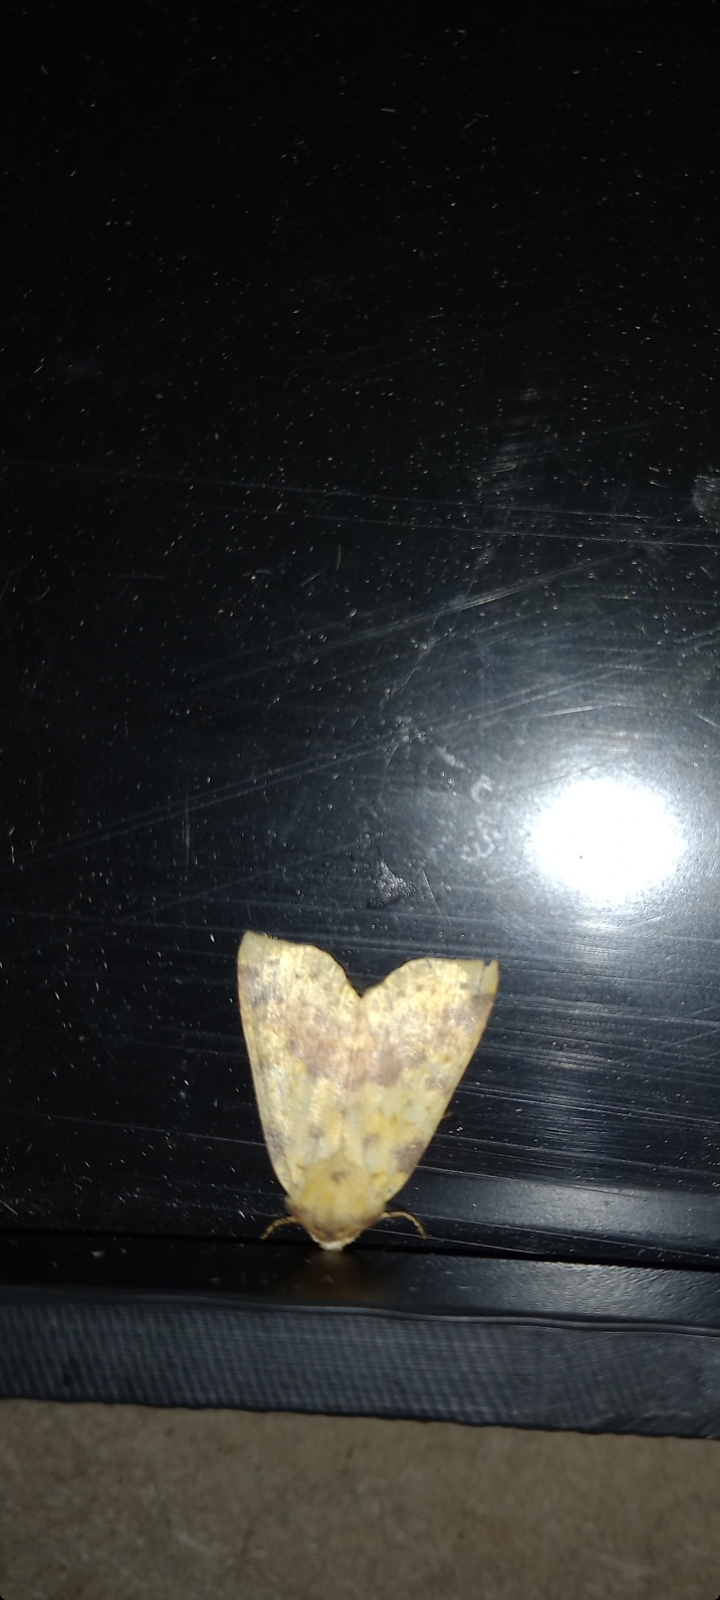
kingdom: Animalia
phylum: Arthropoda
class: Insecta
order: Lepidoptera
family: Noctuidae
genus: Xanthia
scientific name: Xanthia togata
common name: Pink-barred sallow
